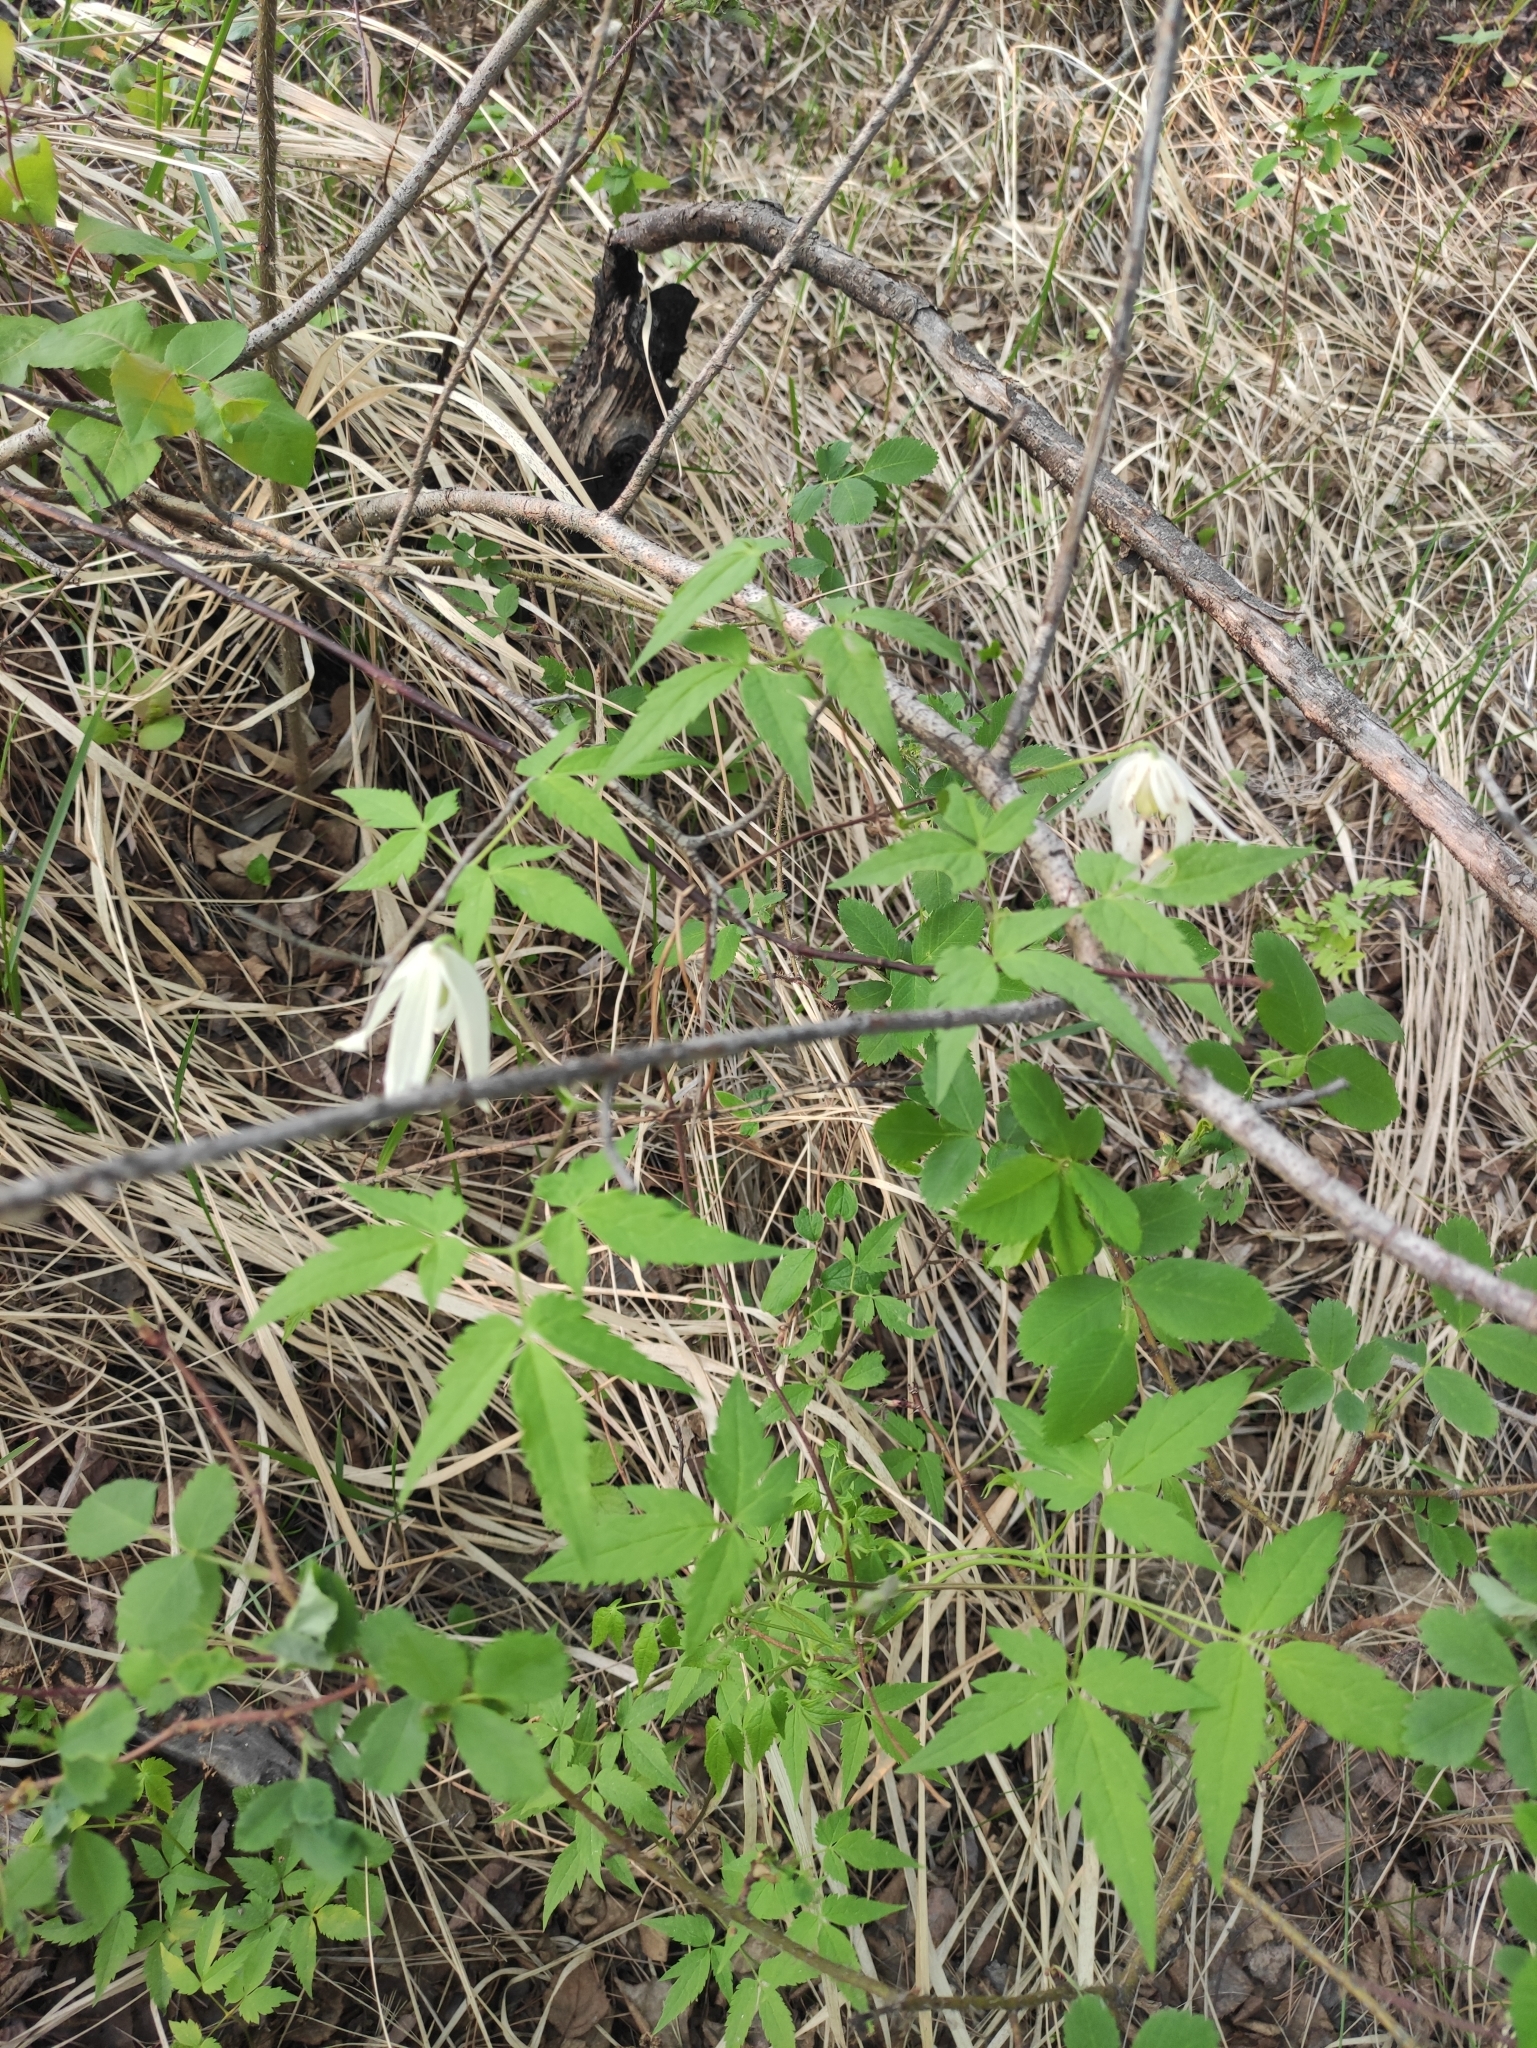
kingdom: Plantae
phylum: Tracheophyta
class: Magnoliopsida
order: Ranunculales
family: Ranunculaceae
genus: Clematis
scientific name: Clematis sibirica
